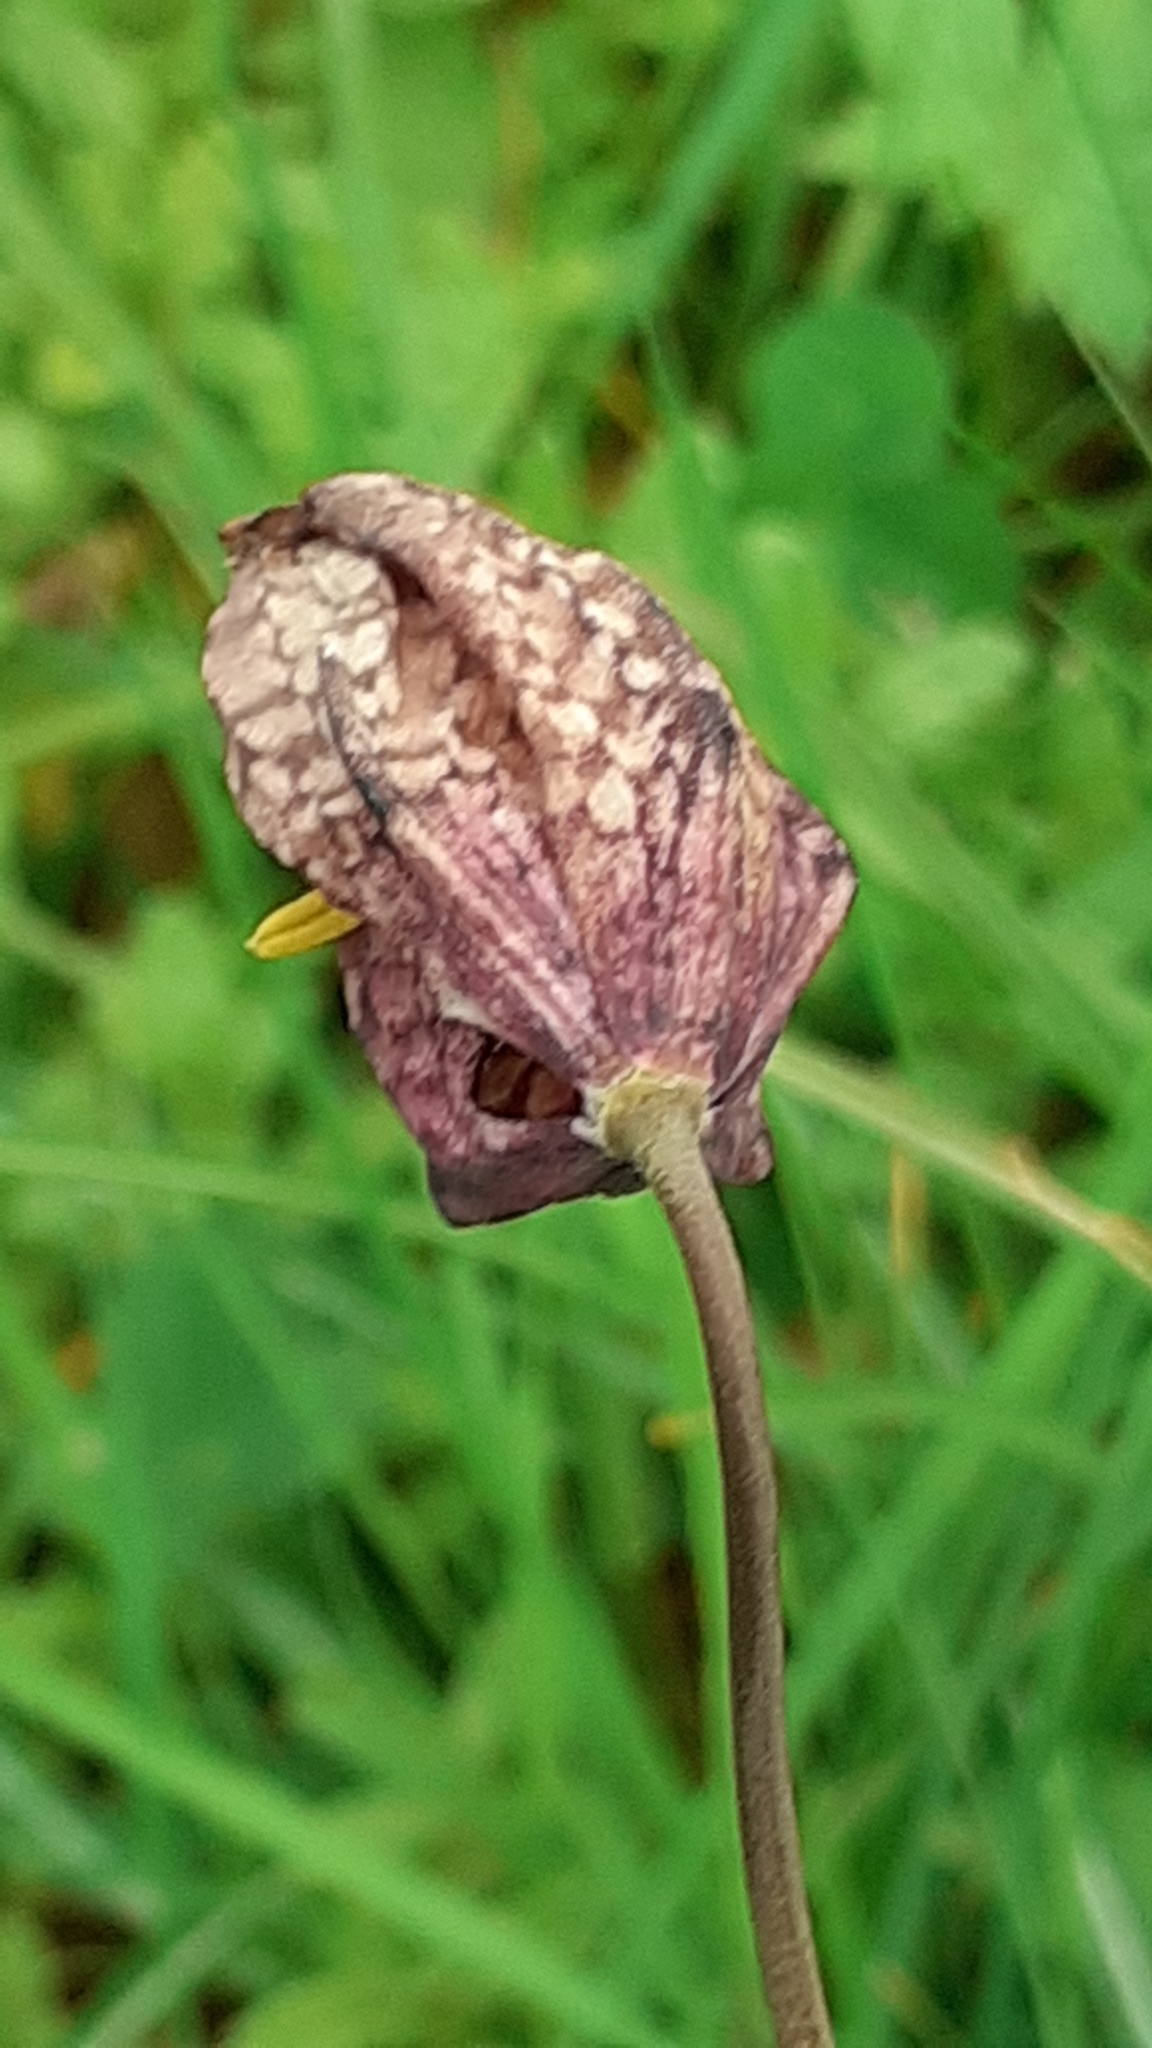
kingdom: Plantae
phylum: Tracheophyta
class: Liliopsida
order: Liliales
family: Liliaceae
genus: Fritillaria
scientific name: Fritillaria meleagris
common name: Fritillary
